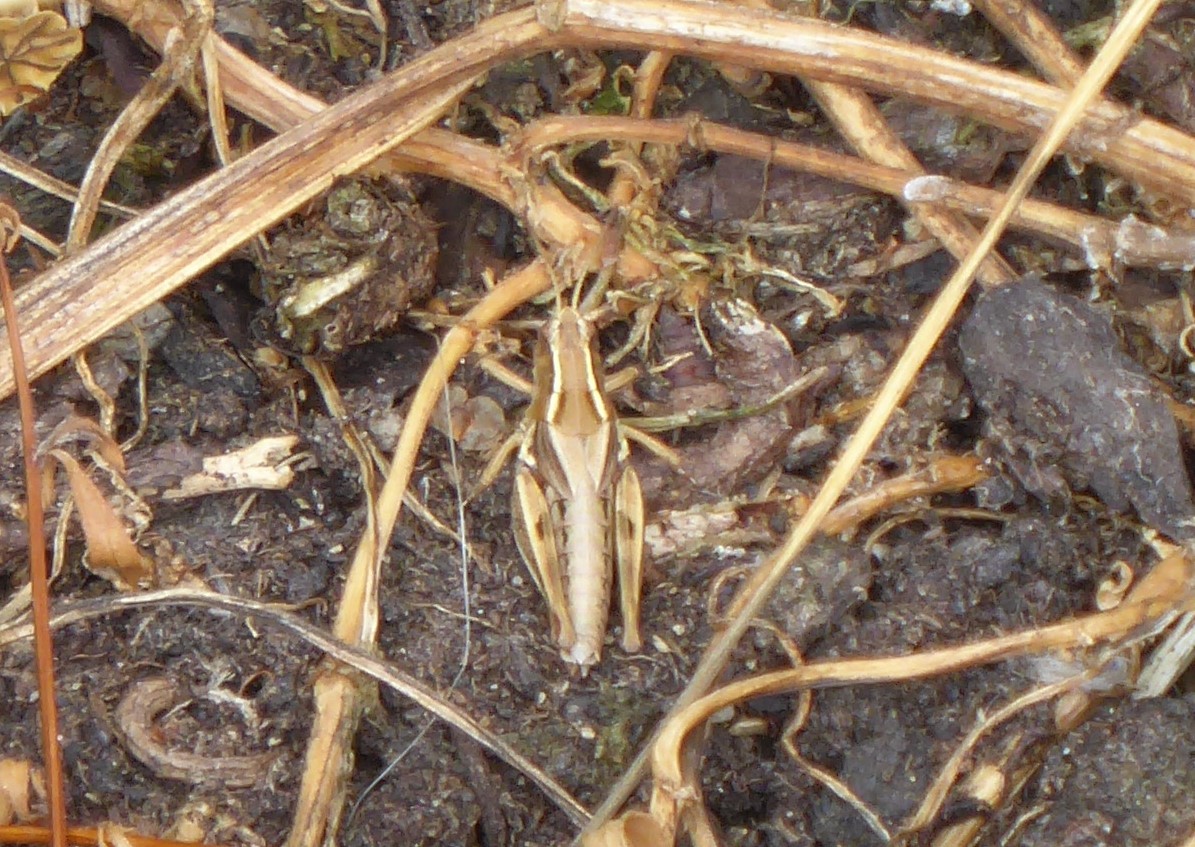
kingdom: Animalia
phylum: Arthropoda
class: Insecta
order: Orthoptera
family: Acrididae
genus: Phaulacridium
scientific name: Phaulacridium marginale
